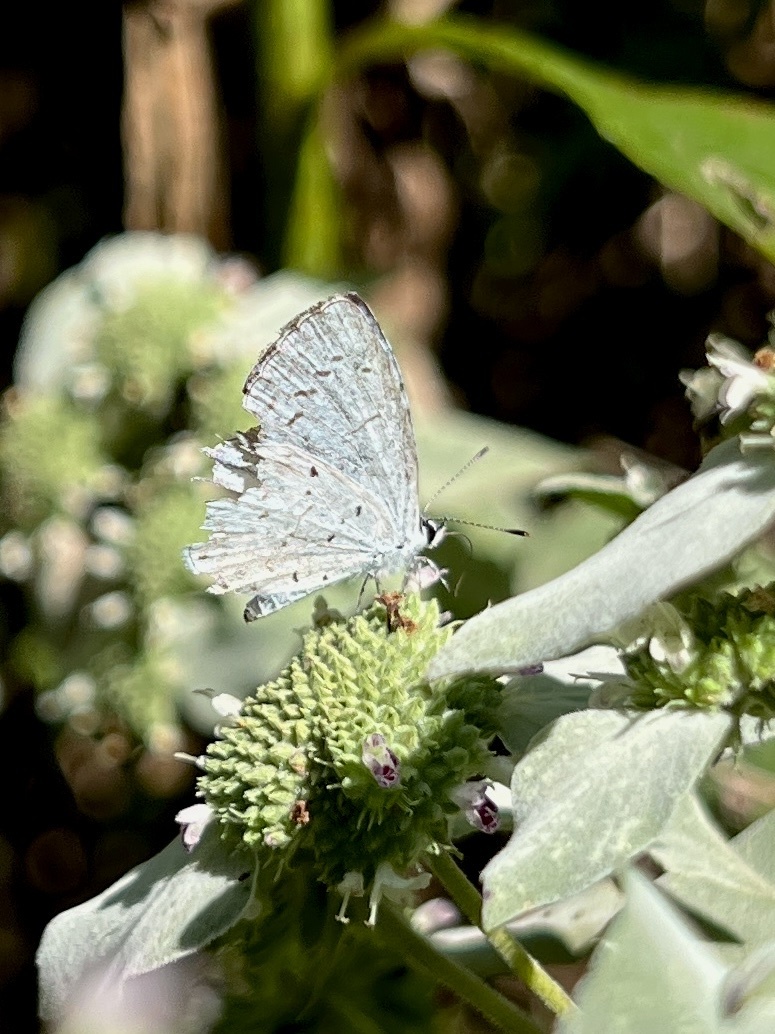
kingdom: Animalia
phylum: Arthropoda
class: Insecta
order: Lepidoptera
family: Lycaenidae
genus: Cyaniris
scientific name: Cyaniris neglecta
